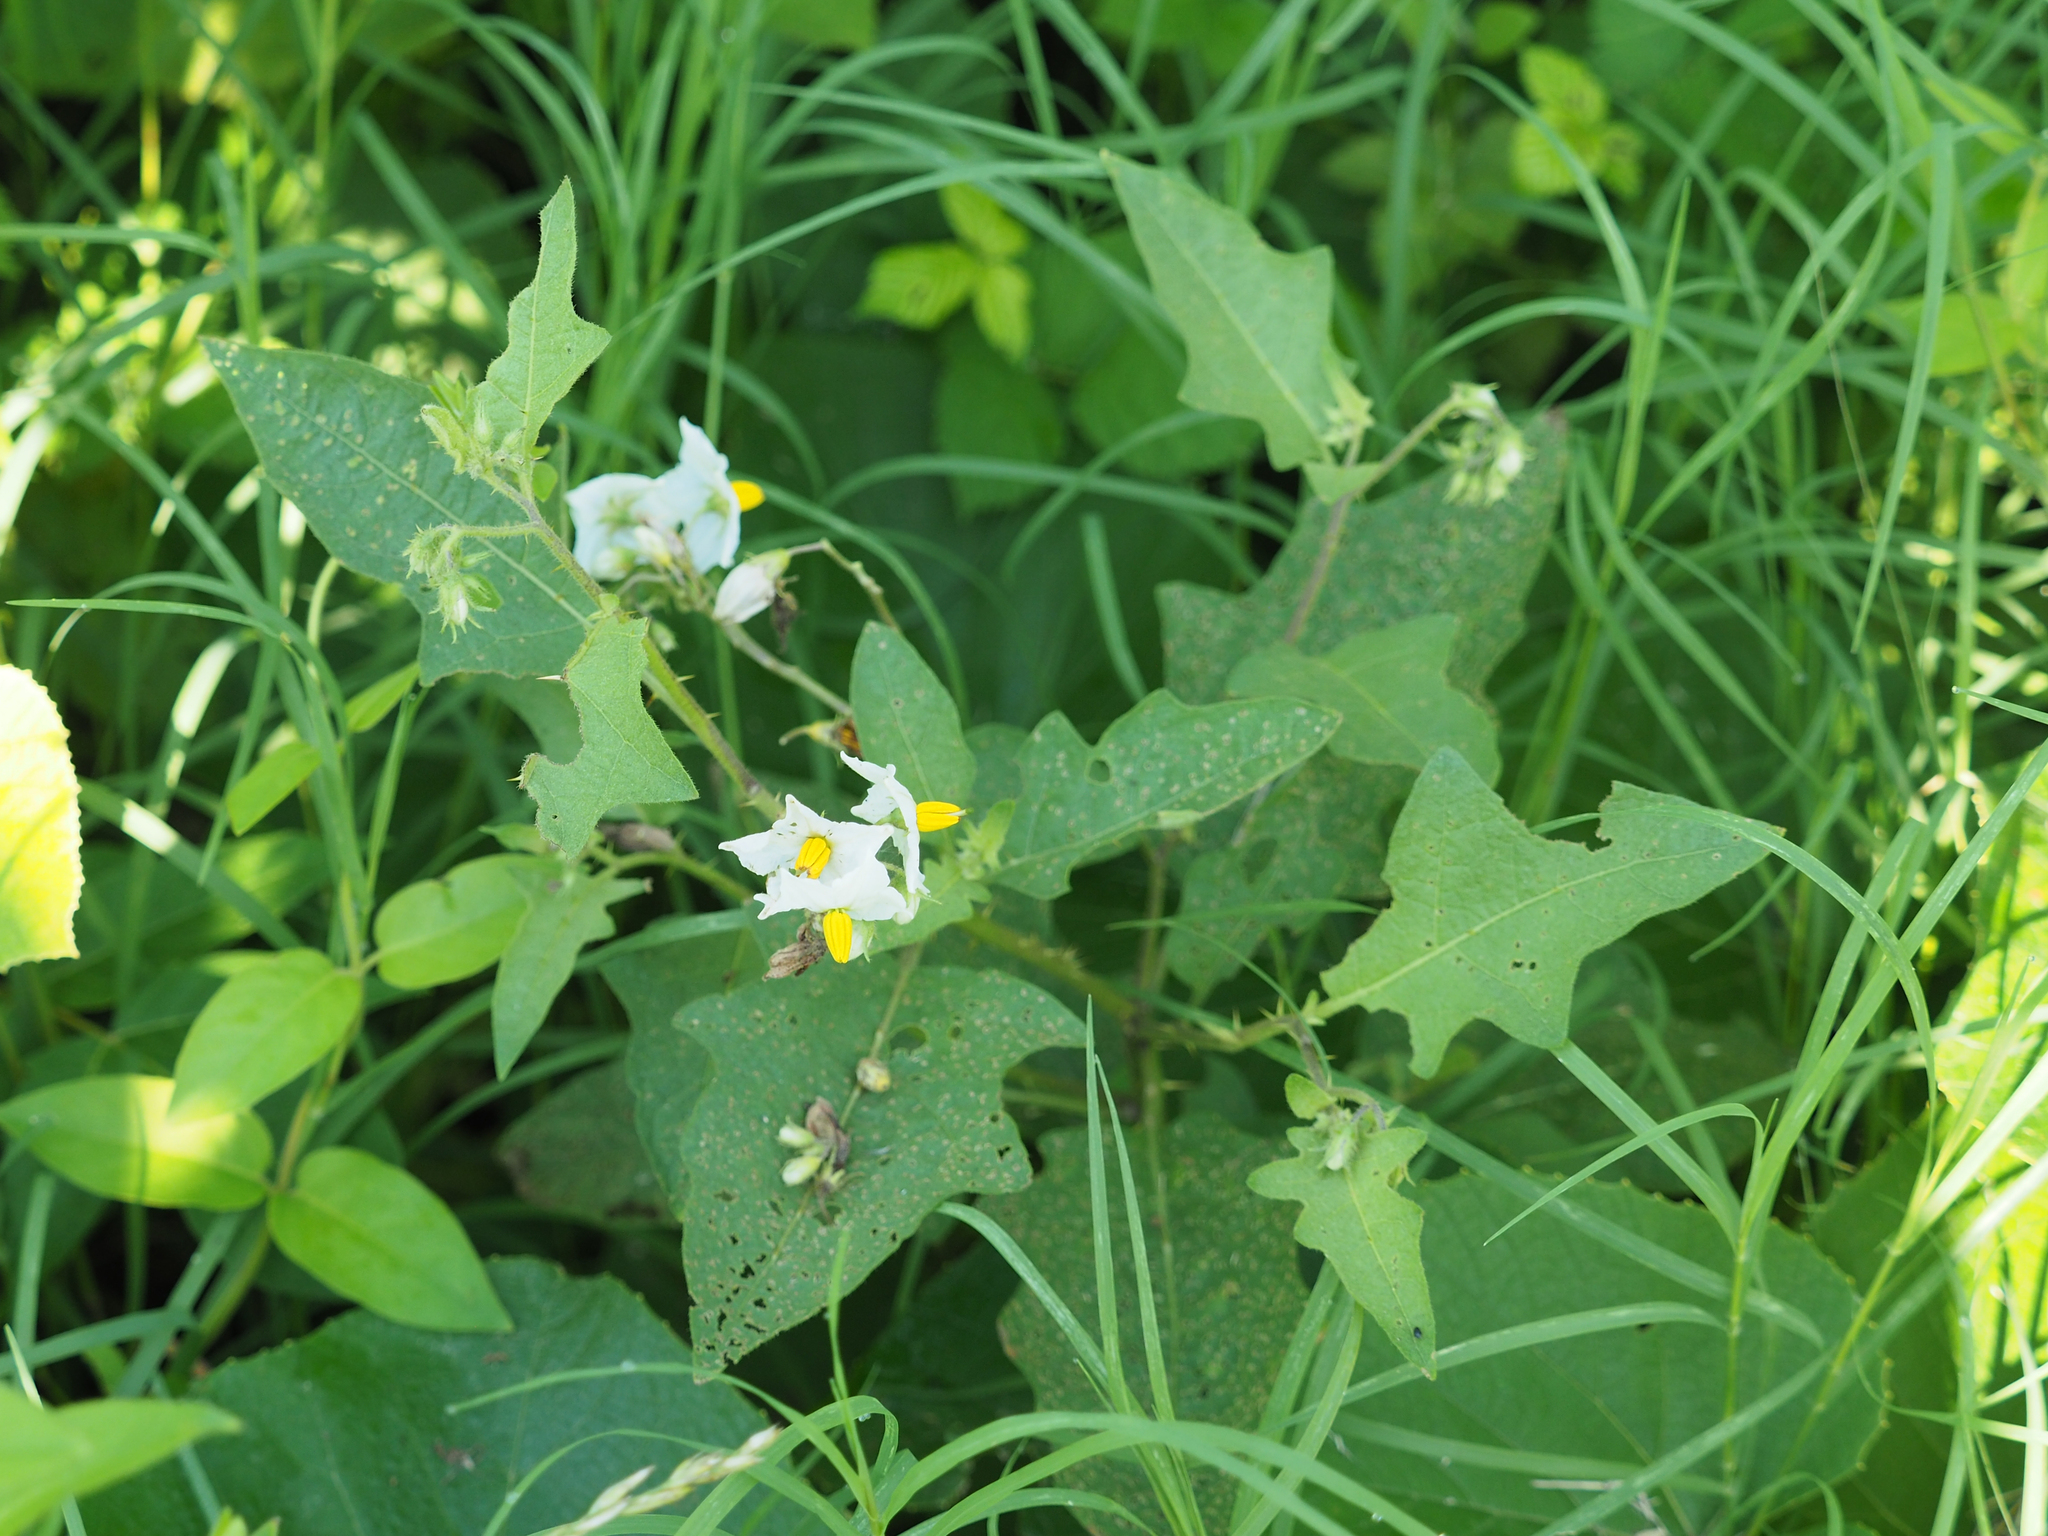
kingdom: Plantae
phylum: Tracheophyta
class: Magnoliopsida
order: Solanales
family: Solanaceae
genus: Solanum
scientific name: Solanum carolinense
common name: Horse-nettle
